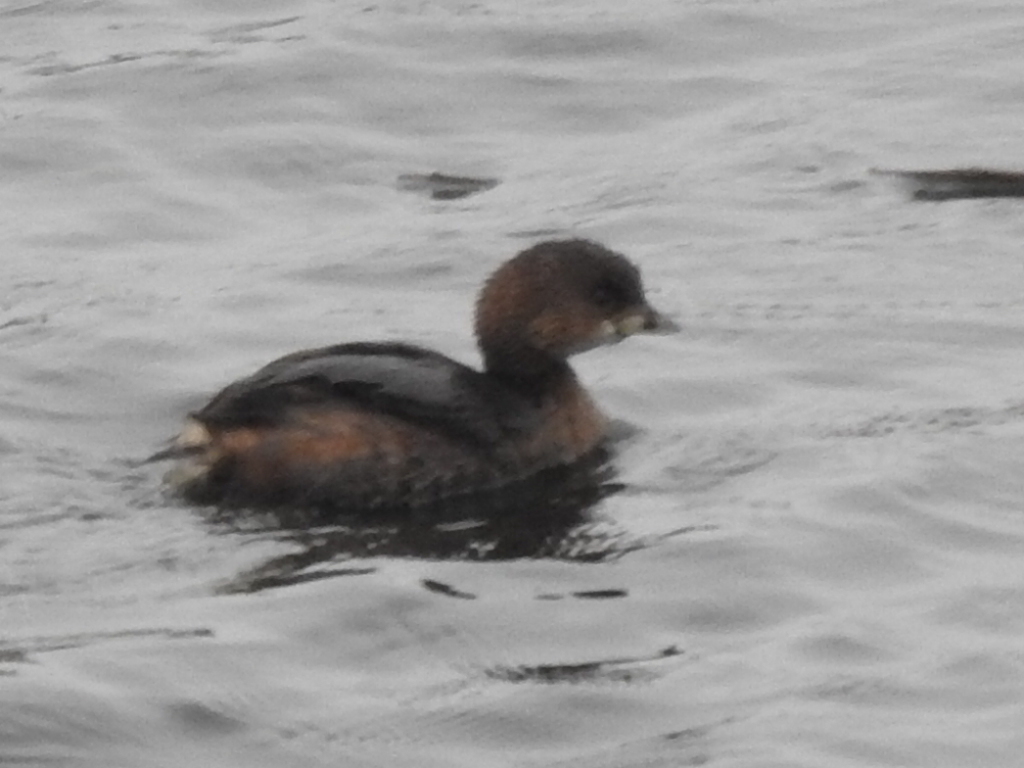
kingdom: Animalia
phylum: Chordata
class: Aves
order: Podicipediformes
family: Podicipedidae
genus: Podilymbus
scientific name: Podilymbus podiceps
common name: Pied-billed grebe
